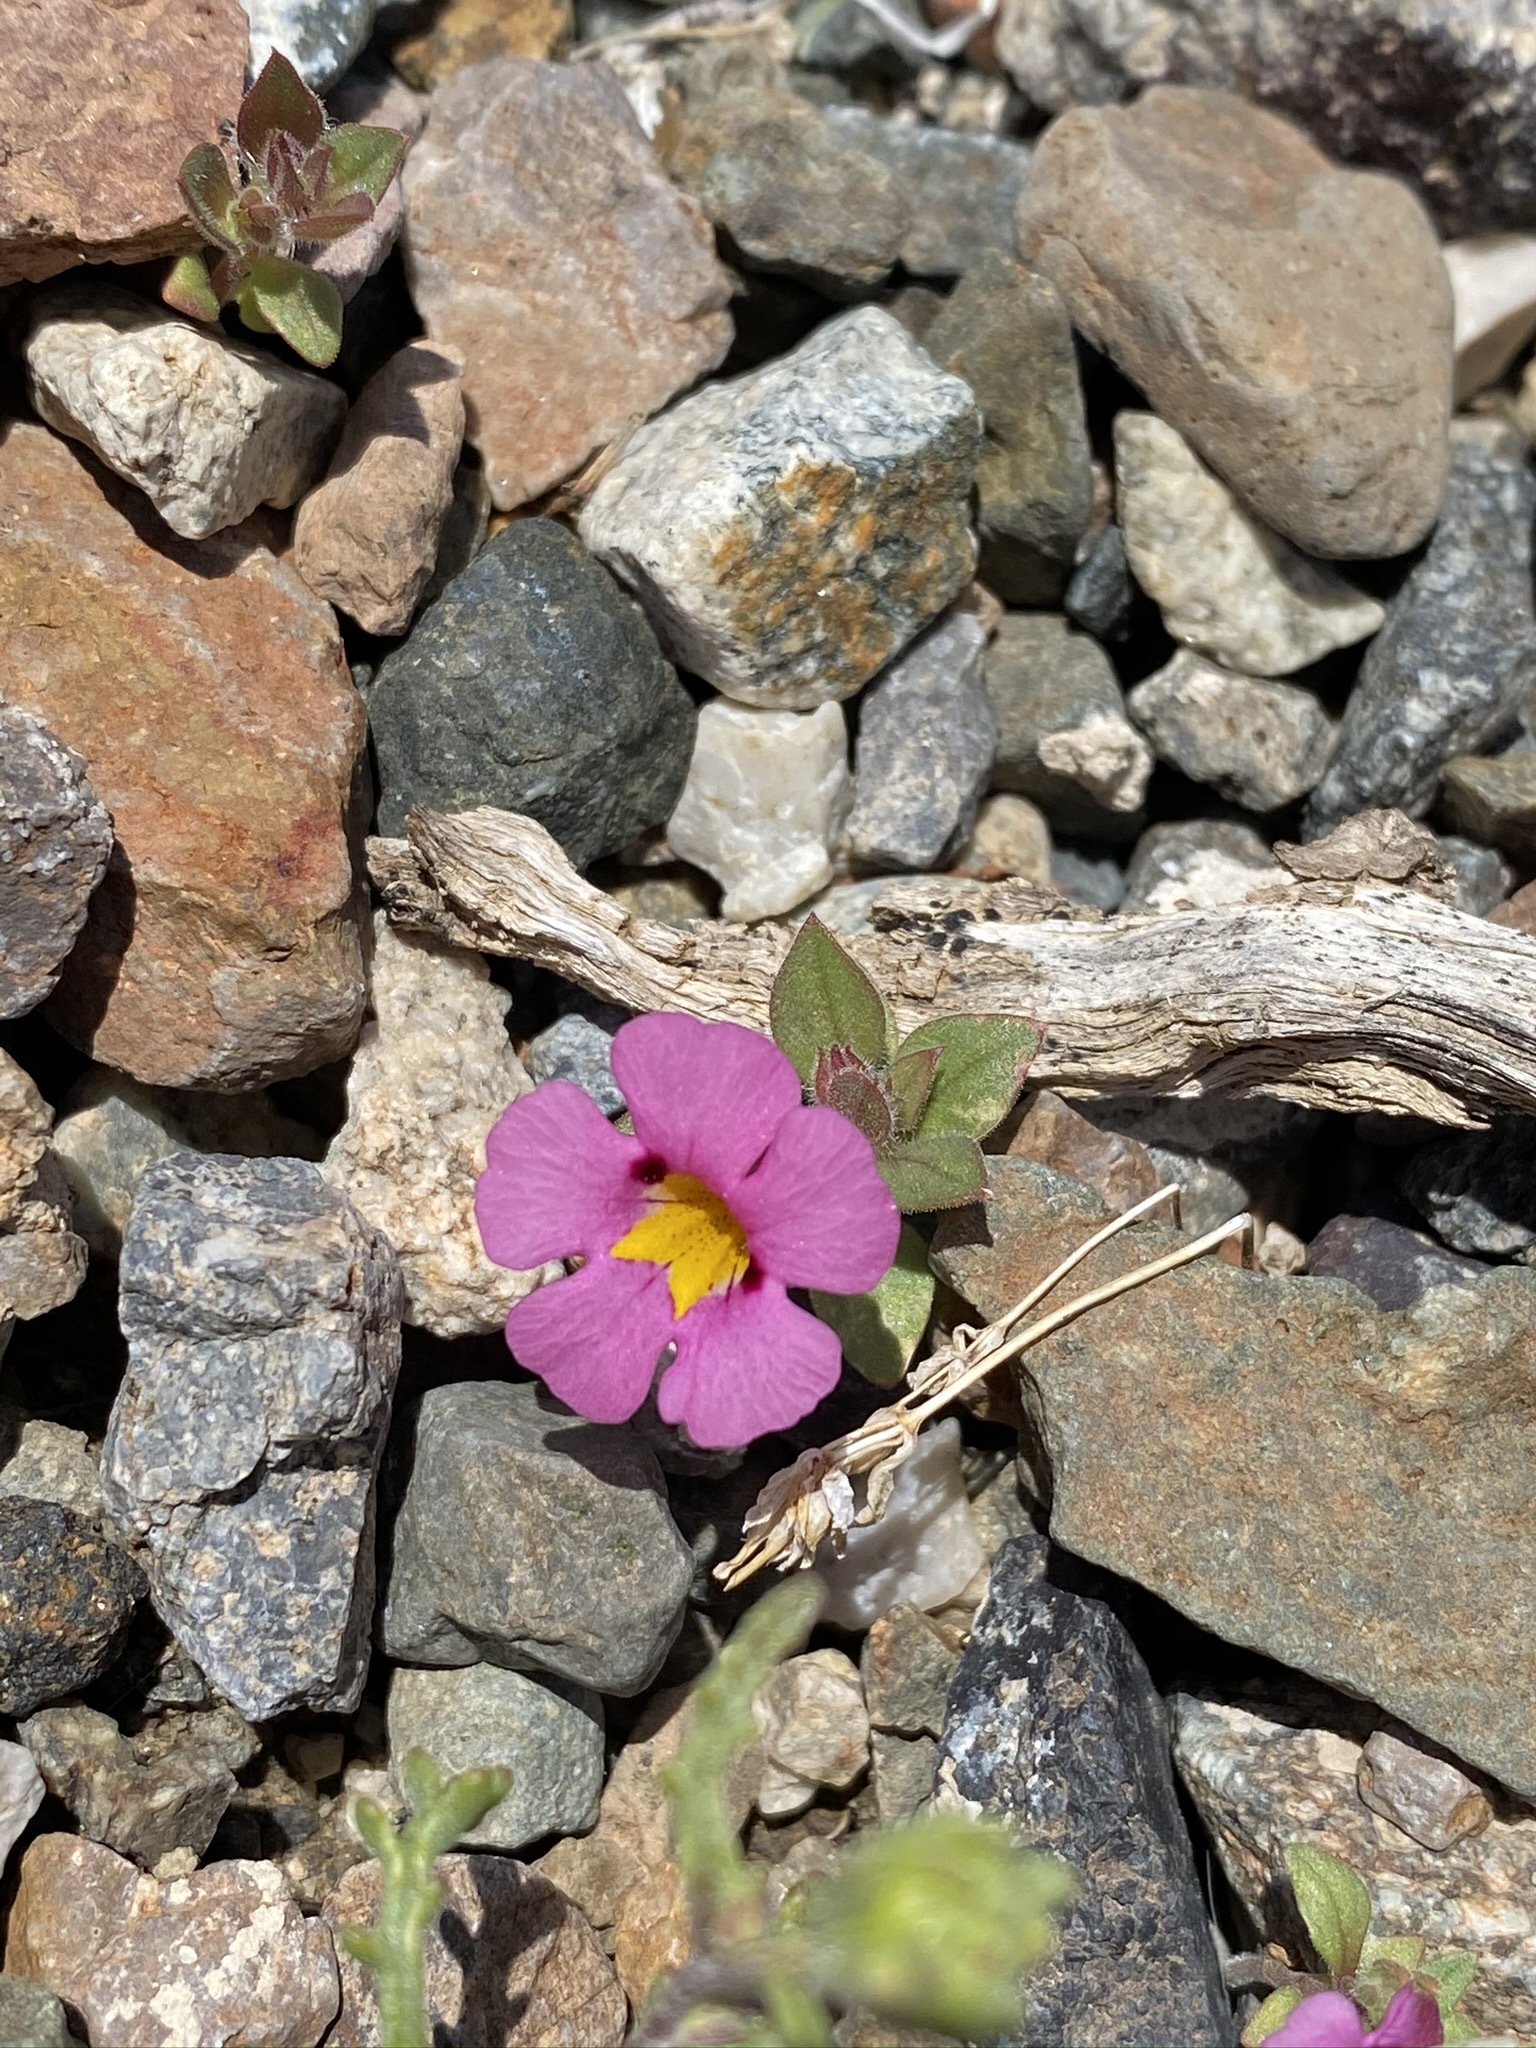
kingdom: Plantae
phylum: Tracheophyta
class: Magnoliopsida
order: Lamiales
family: Phrymaceae
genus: Diplacus
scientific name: Diplacus bigelovii
